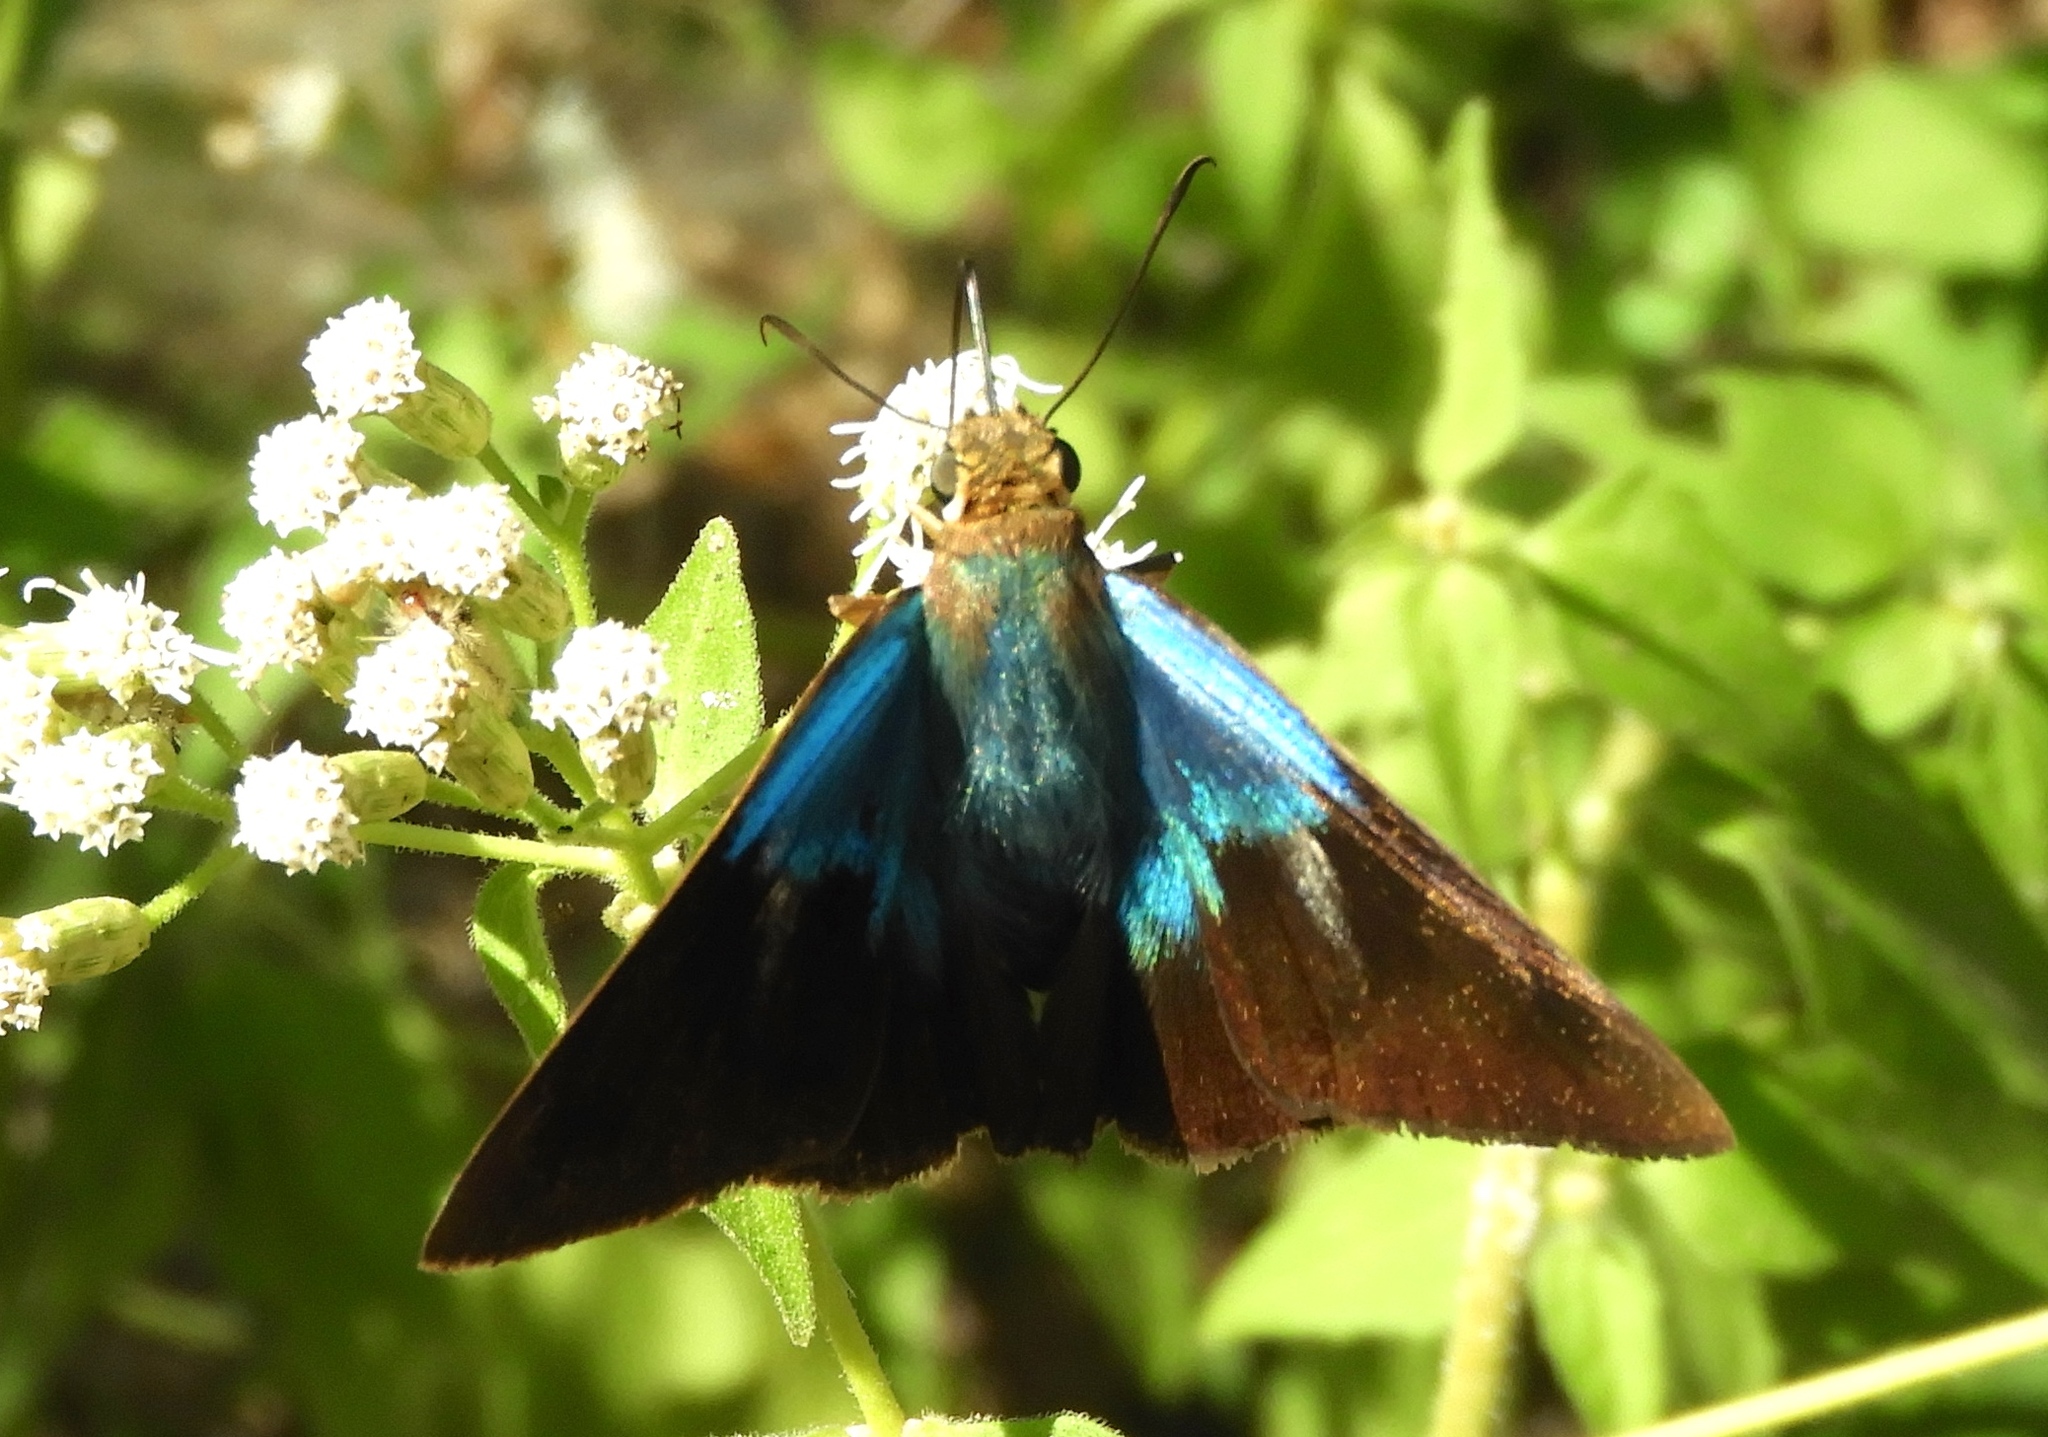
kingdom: Animalia
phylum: Arthropoda
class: Insecta
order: Lepidoptera
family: Hesperiidae
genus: Astraptes
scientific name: Astraptes alector
